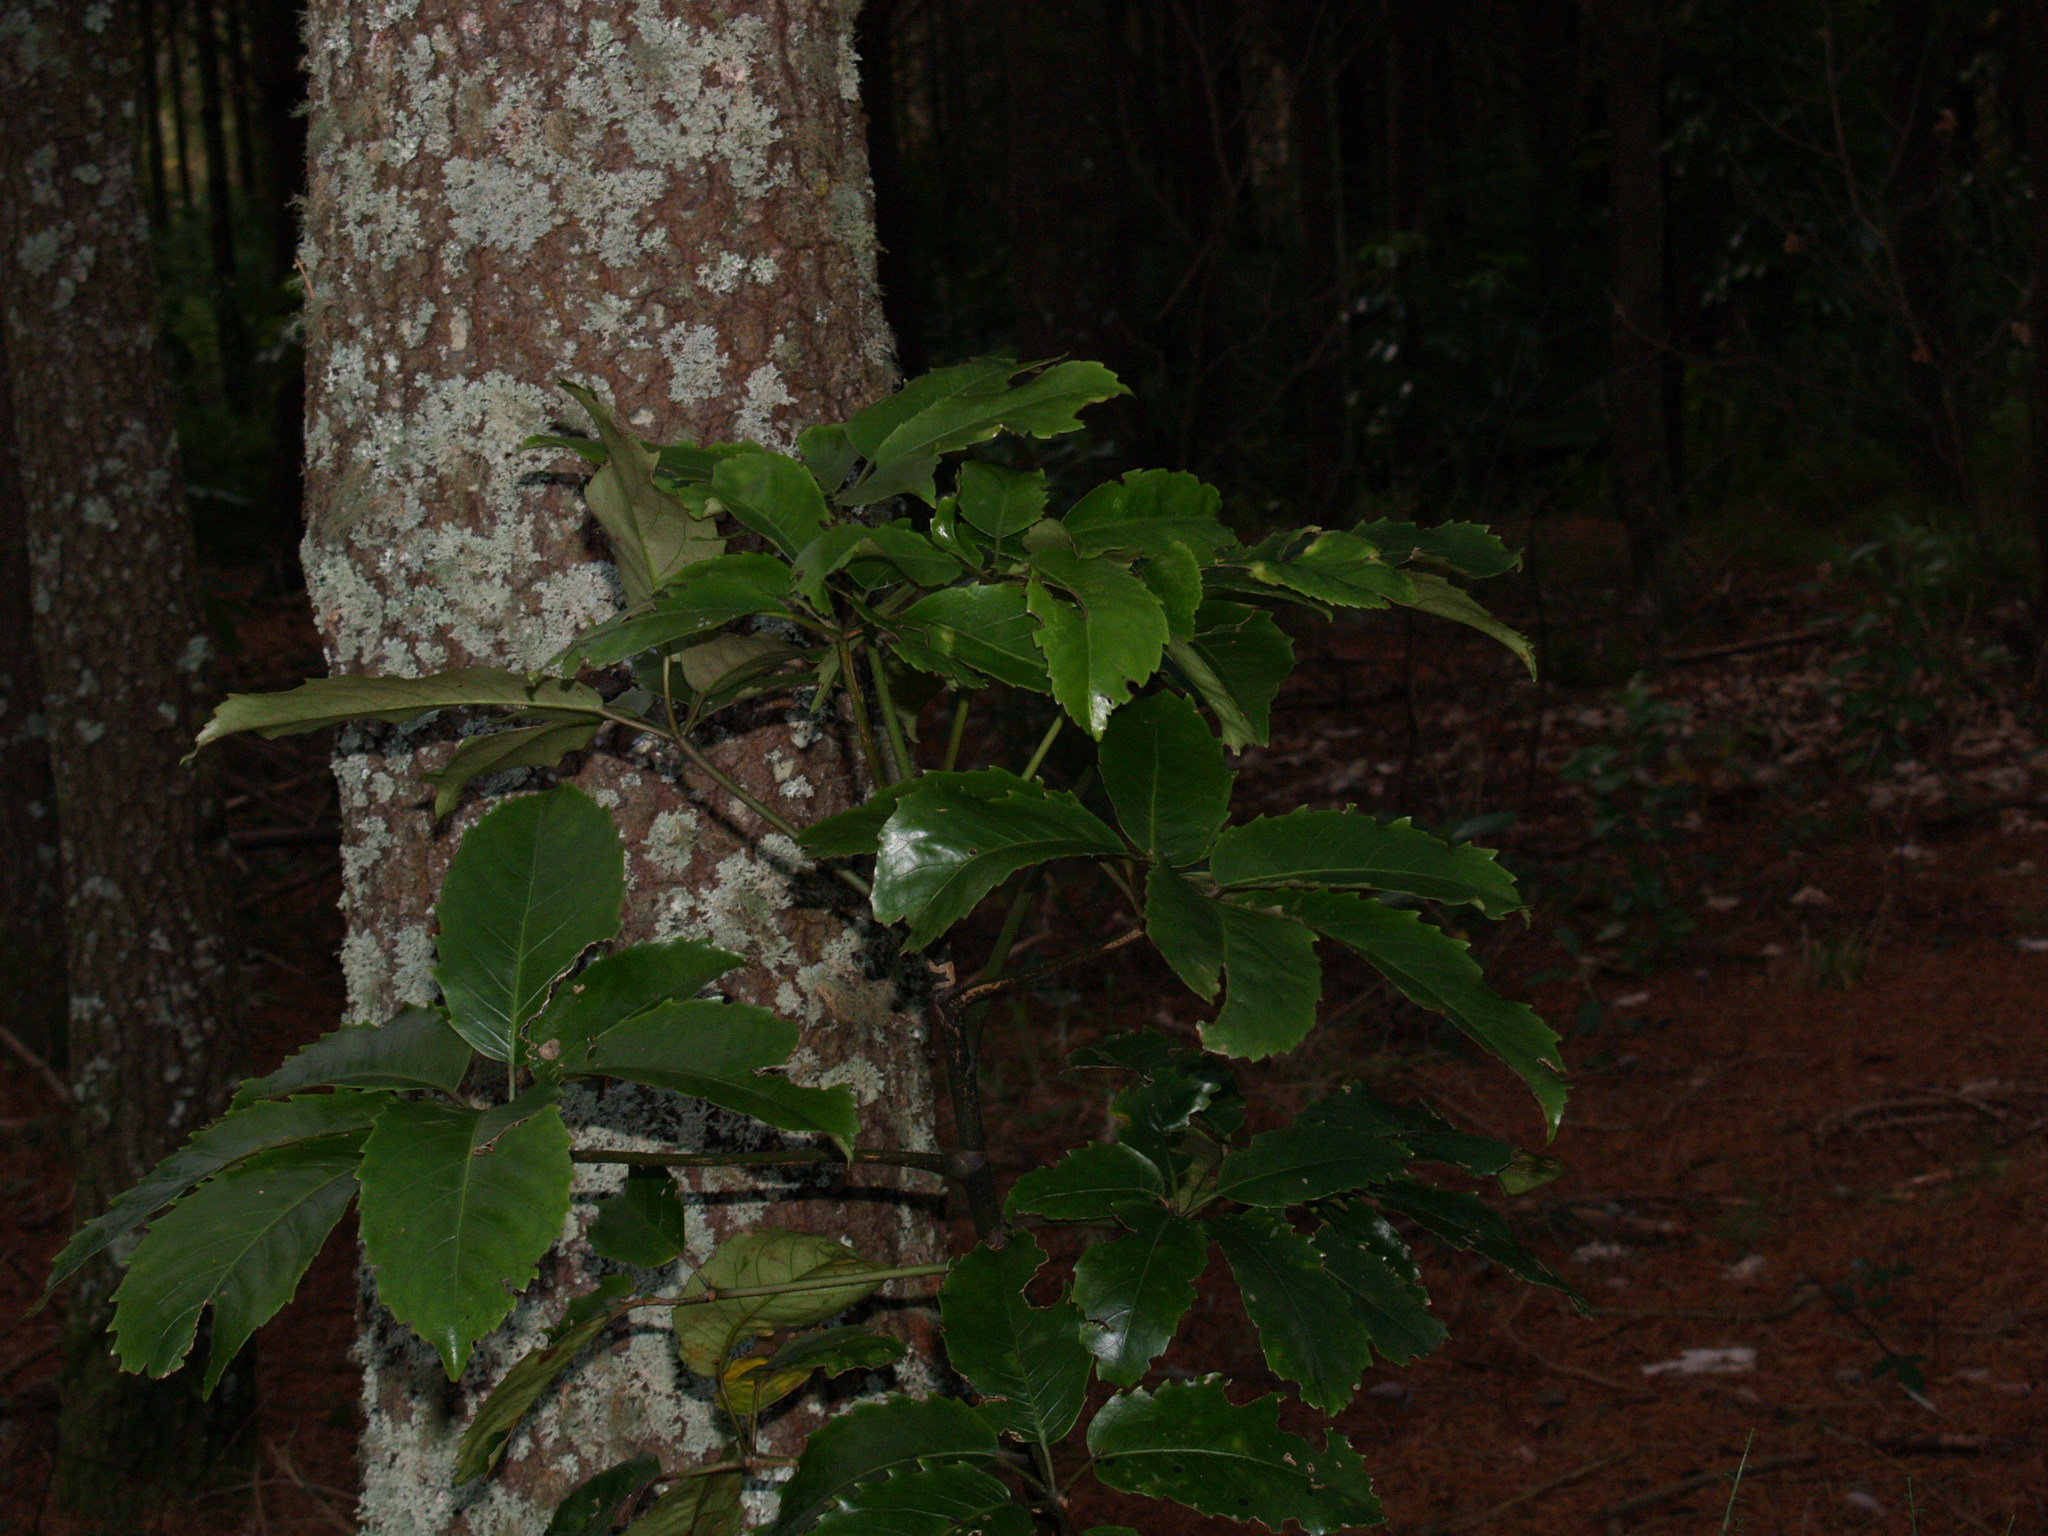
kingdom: Plantae
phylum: Tracheophyta
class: Magnoliopsida
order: Apiales
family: Araliaceae
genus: Neopanax
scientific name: Neopanax arboreus
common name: Five-fingers
